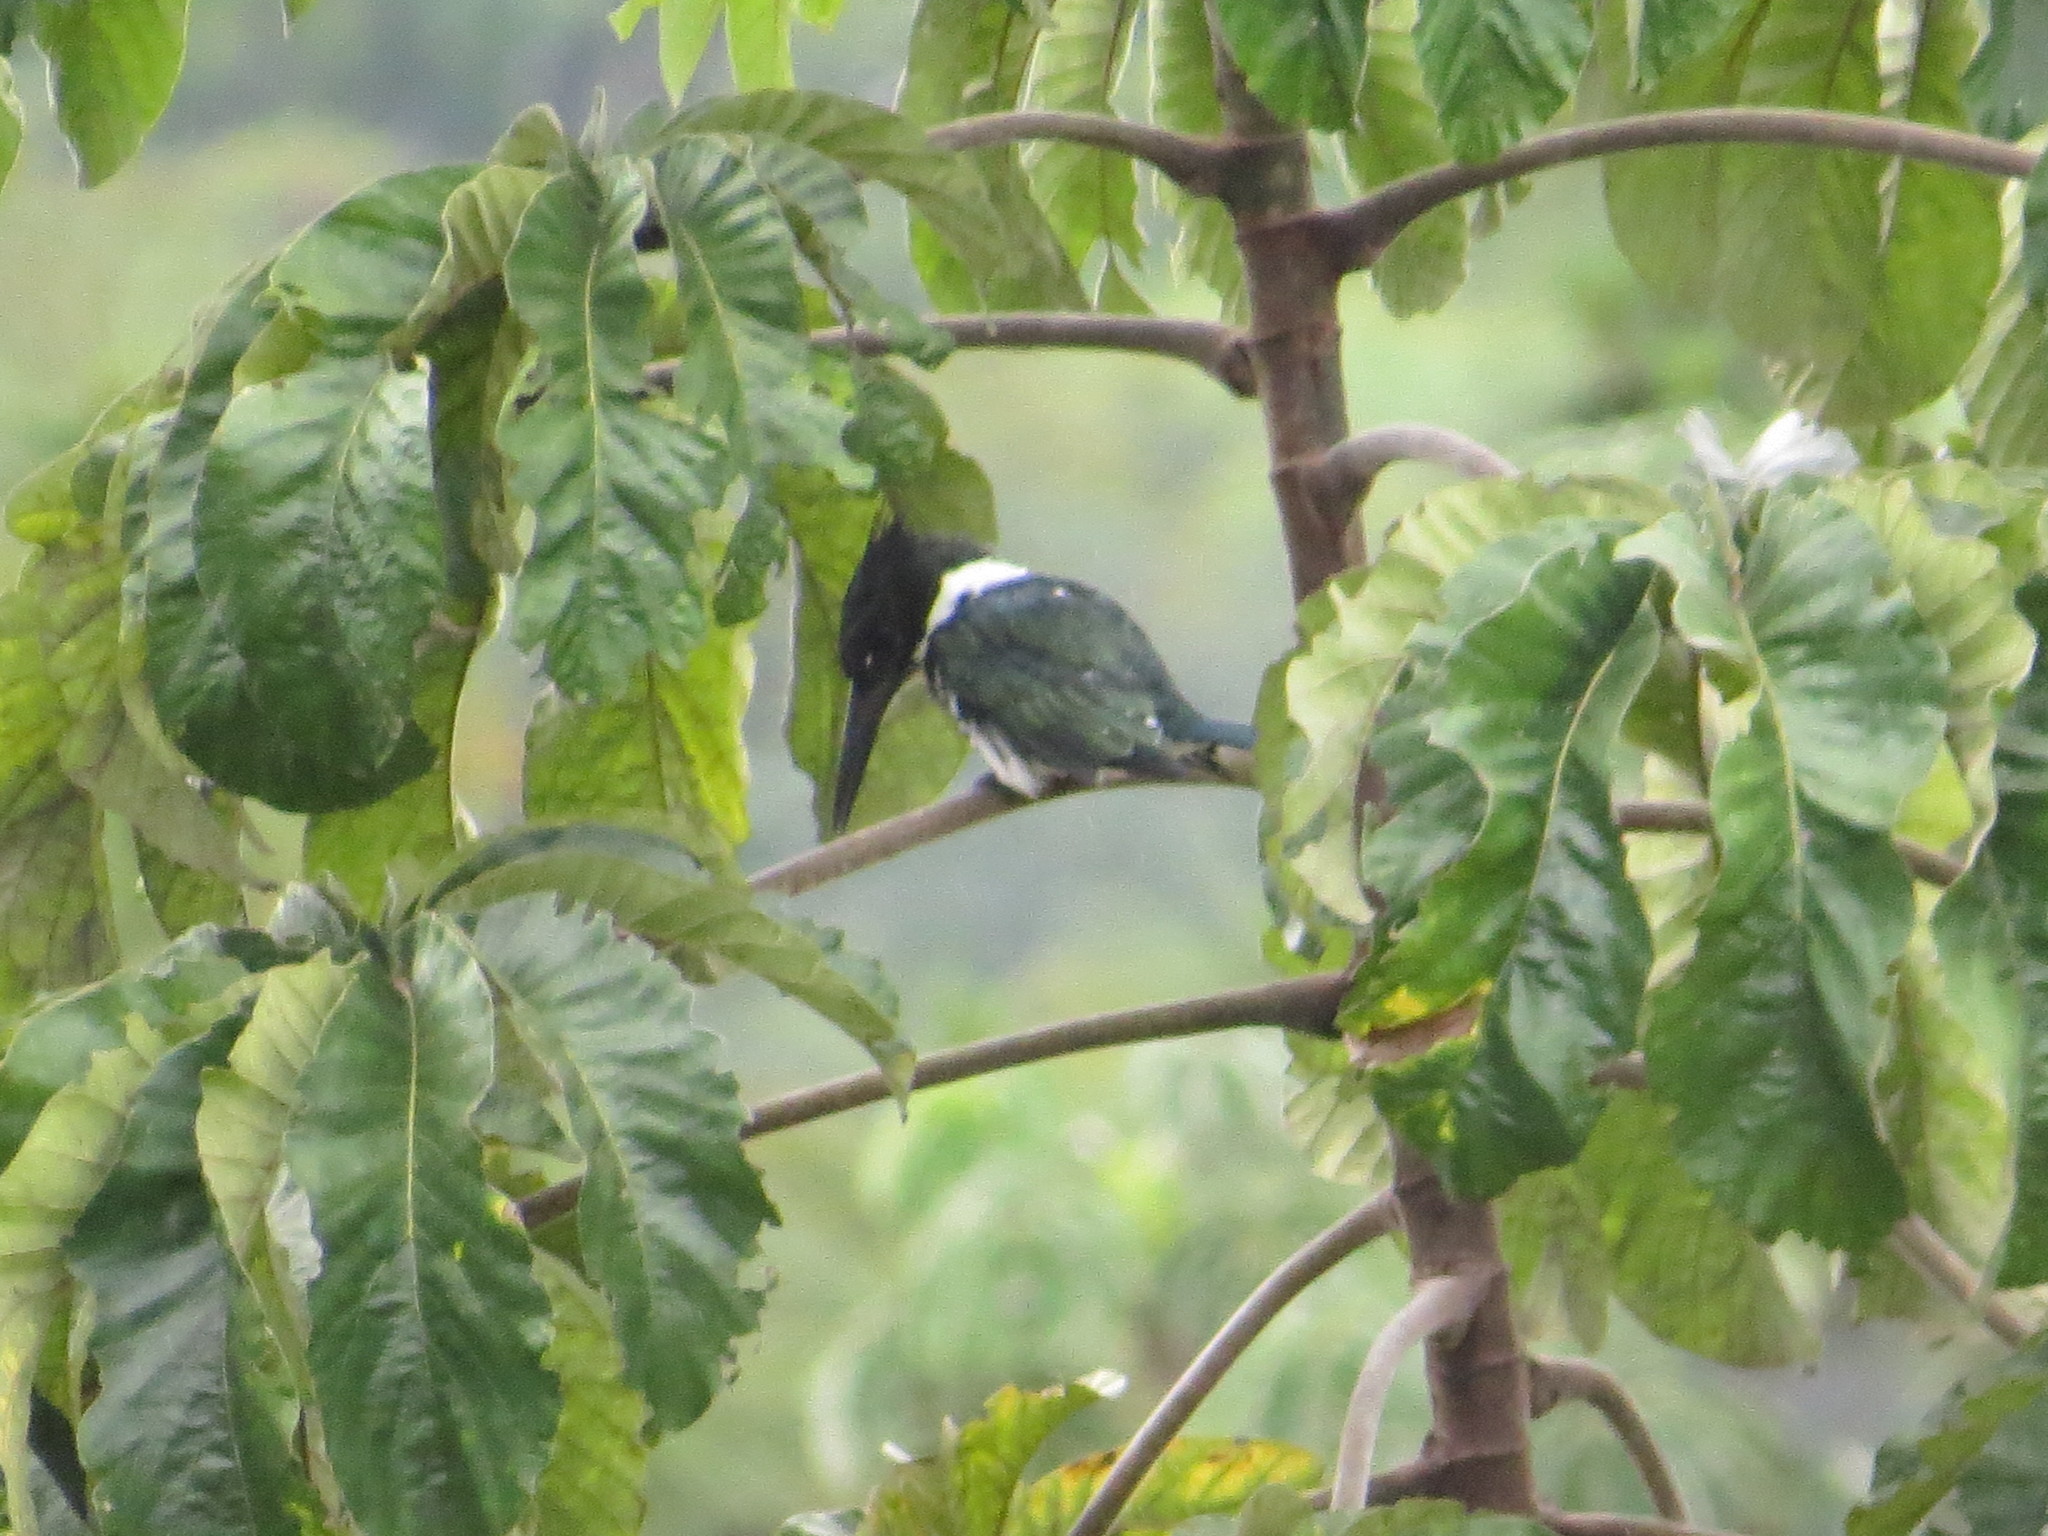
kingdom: Animalia
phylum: Chordata
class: Aves
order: Coraciiformes
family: Alcedinidae
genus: Chloroceryle
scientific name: Chloroceryle amazona
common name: Amazon kingfisher
